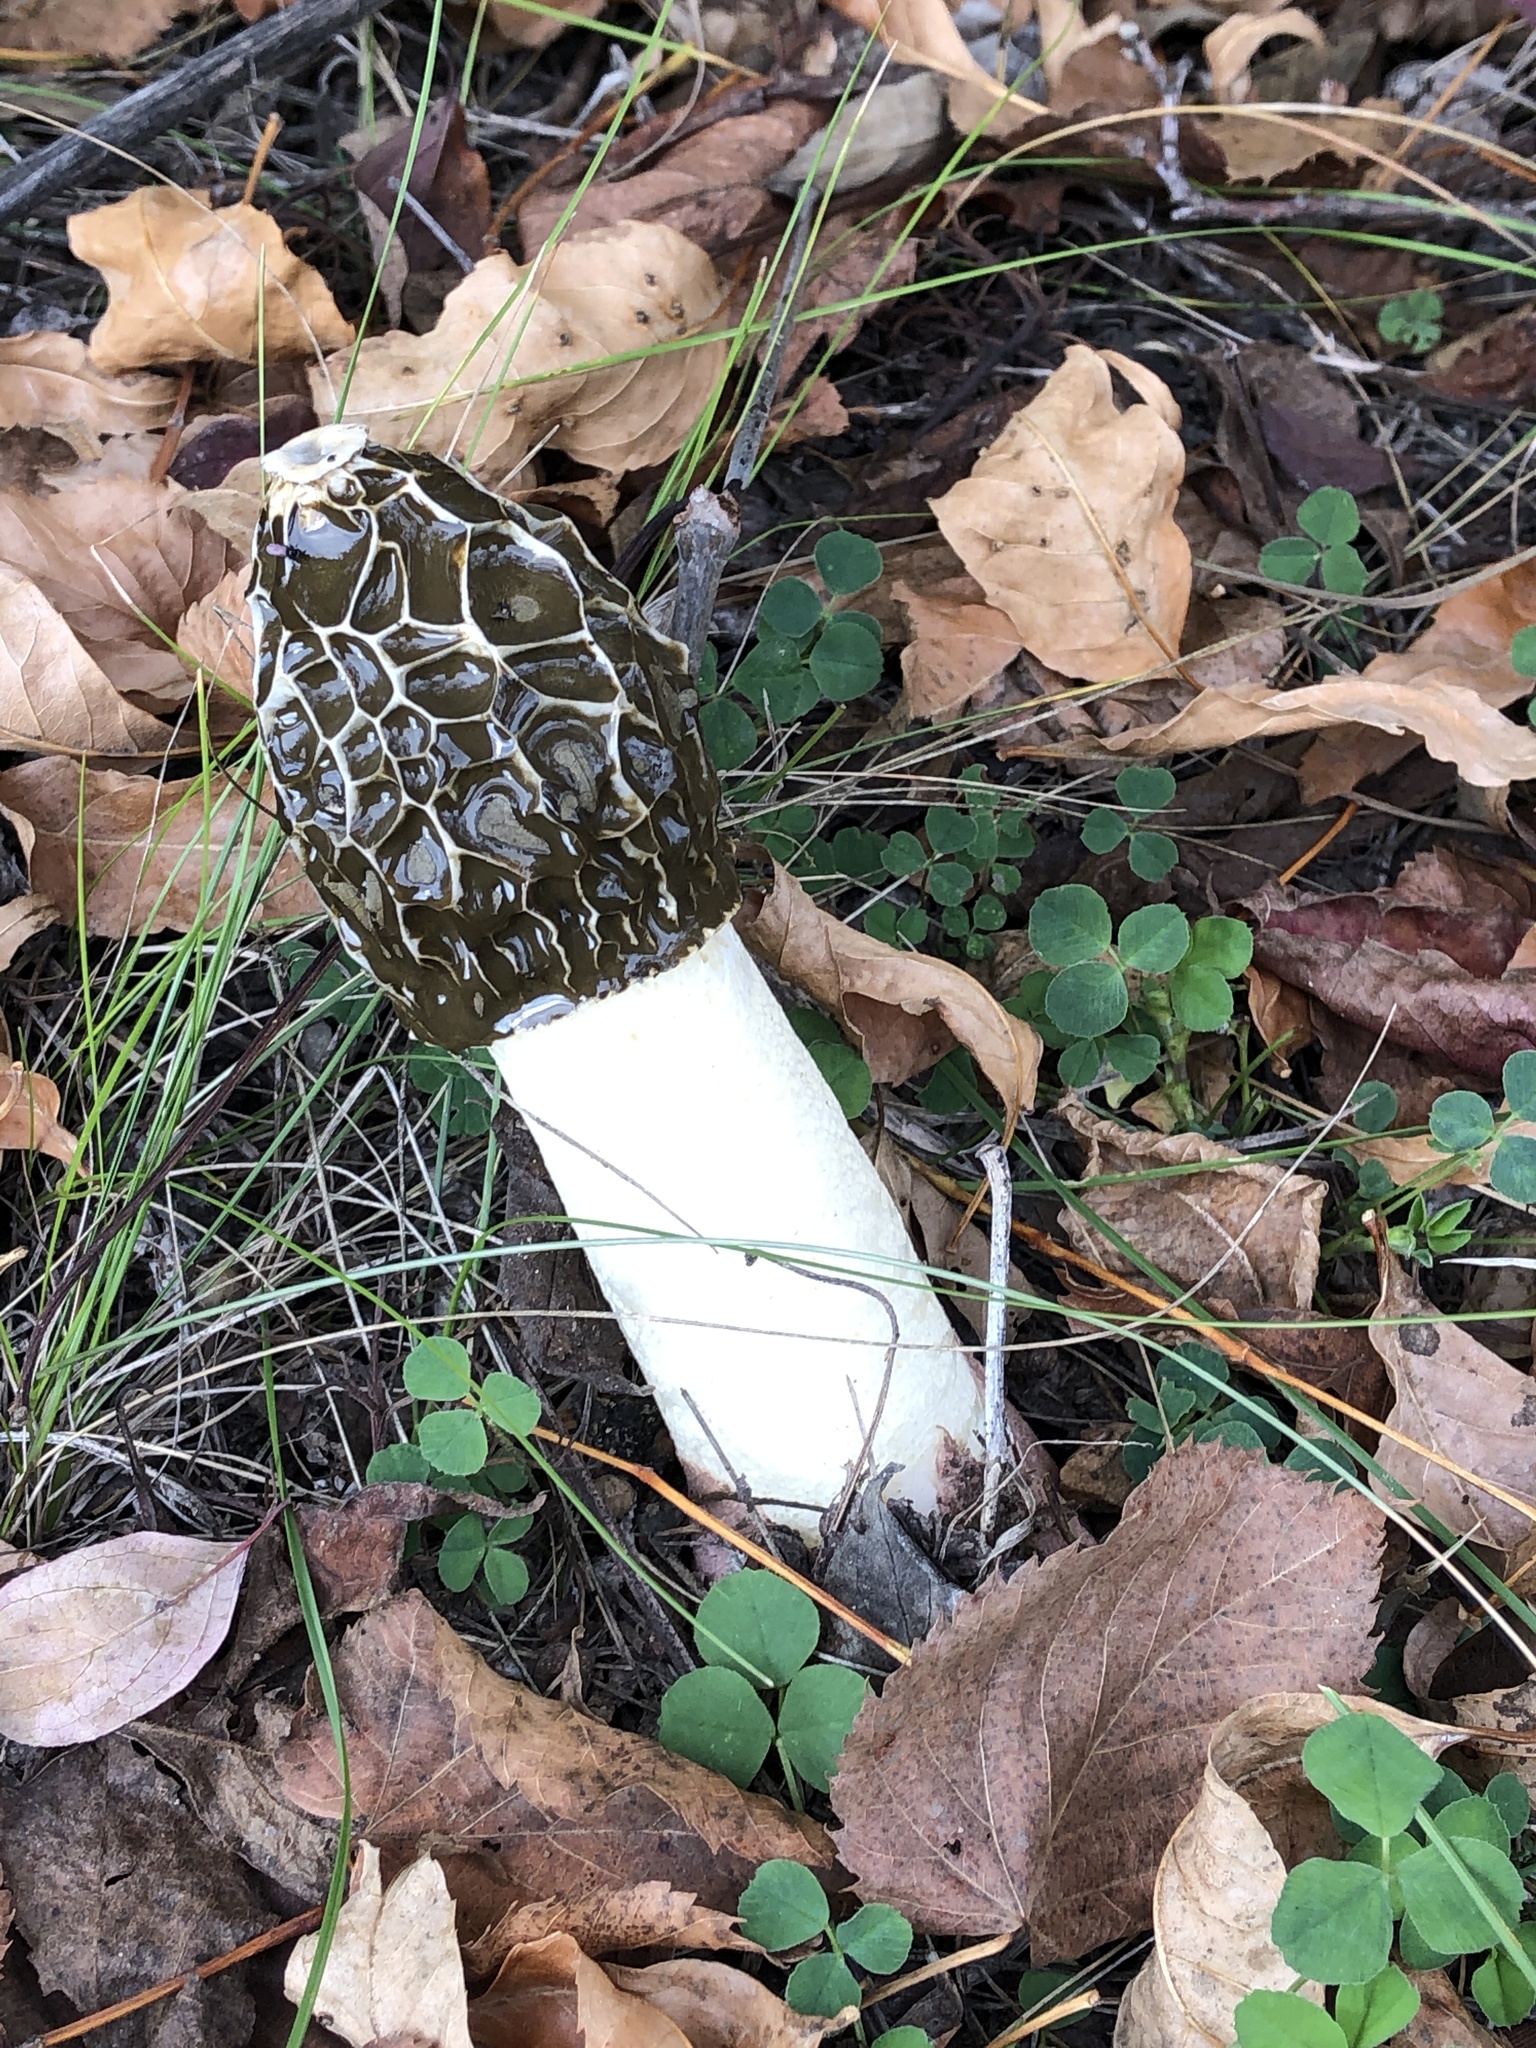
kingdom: Fungi
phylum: Basidiomycota
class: Agaricomycetes
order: Phallales
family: Phallaceae
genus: Phallus
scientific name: Phallus impudicus
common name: Common stinkhorn
